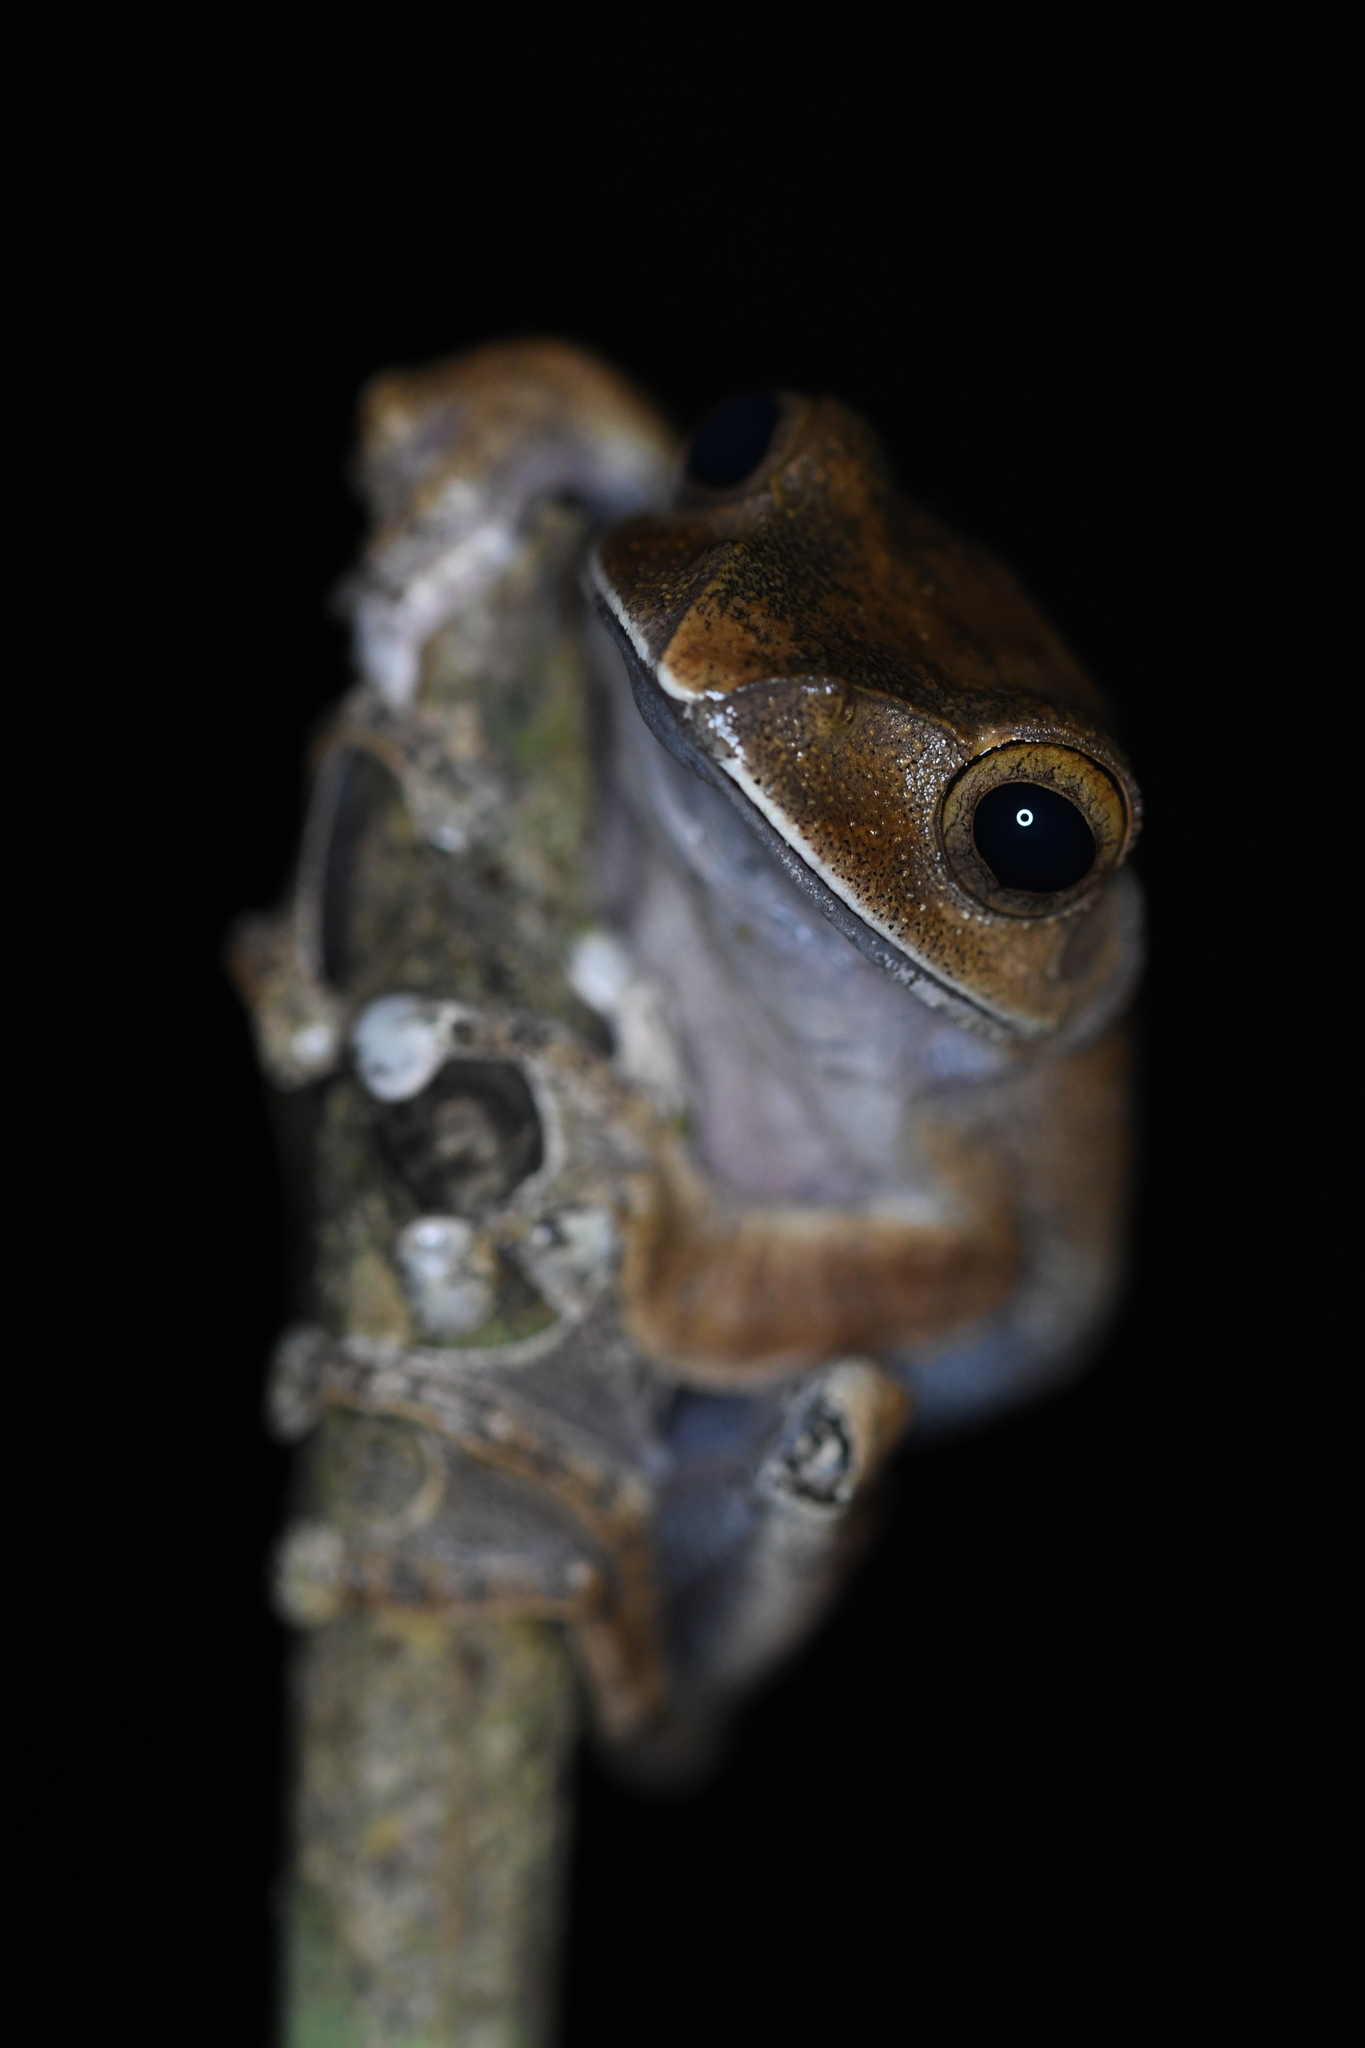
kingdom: Animalia
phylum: Chordata
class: Amphibia
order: Anura
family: Mantellidae
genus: Boophis
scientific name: Boophis madagascariensis
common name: Madagascar bright-eyed frog
